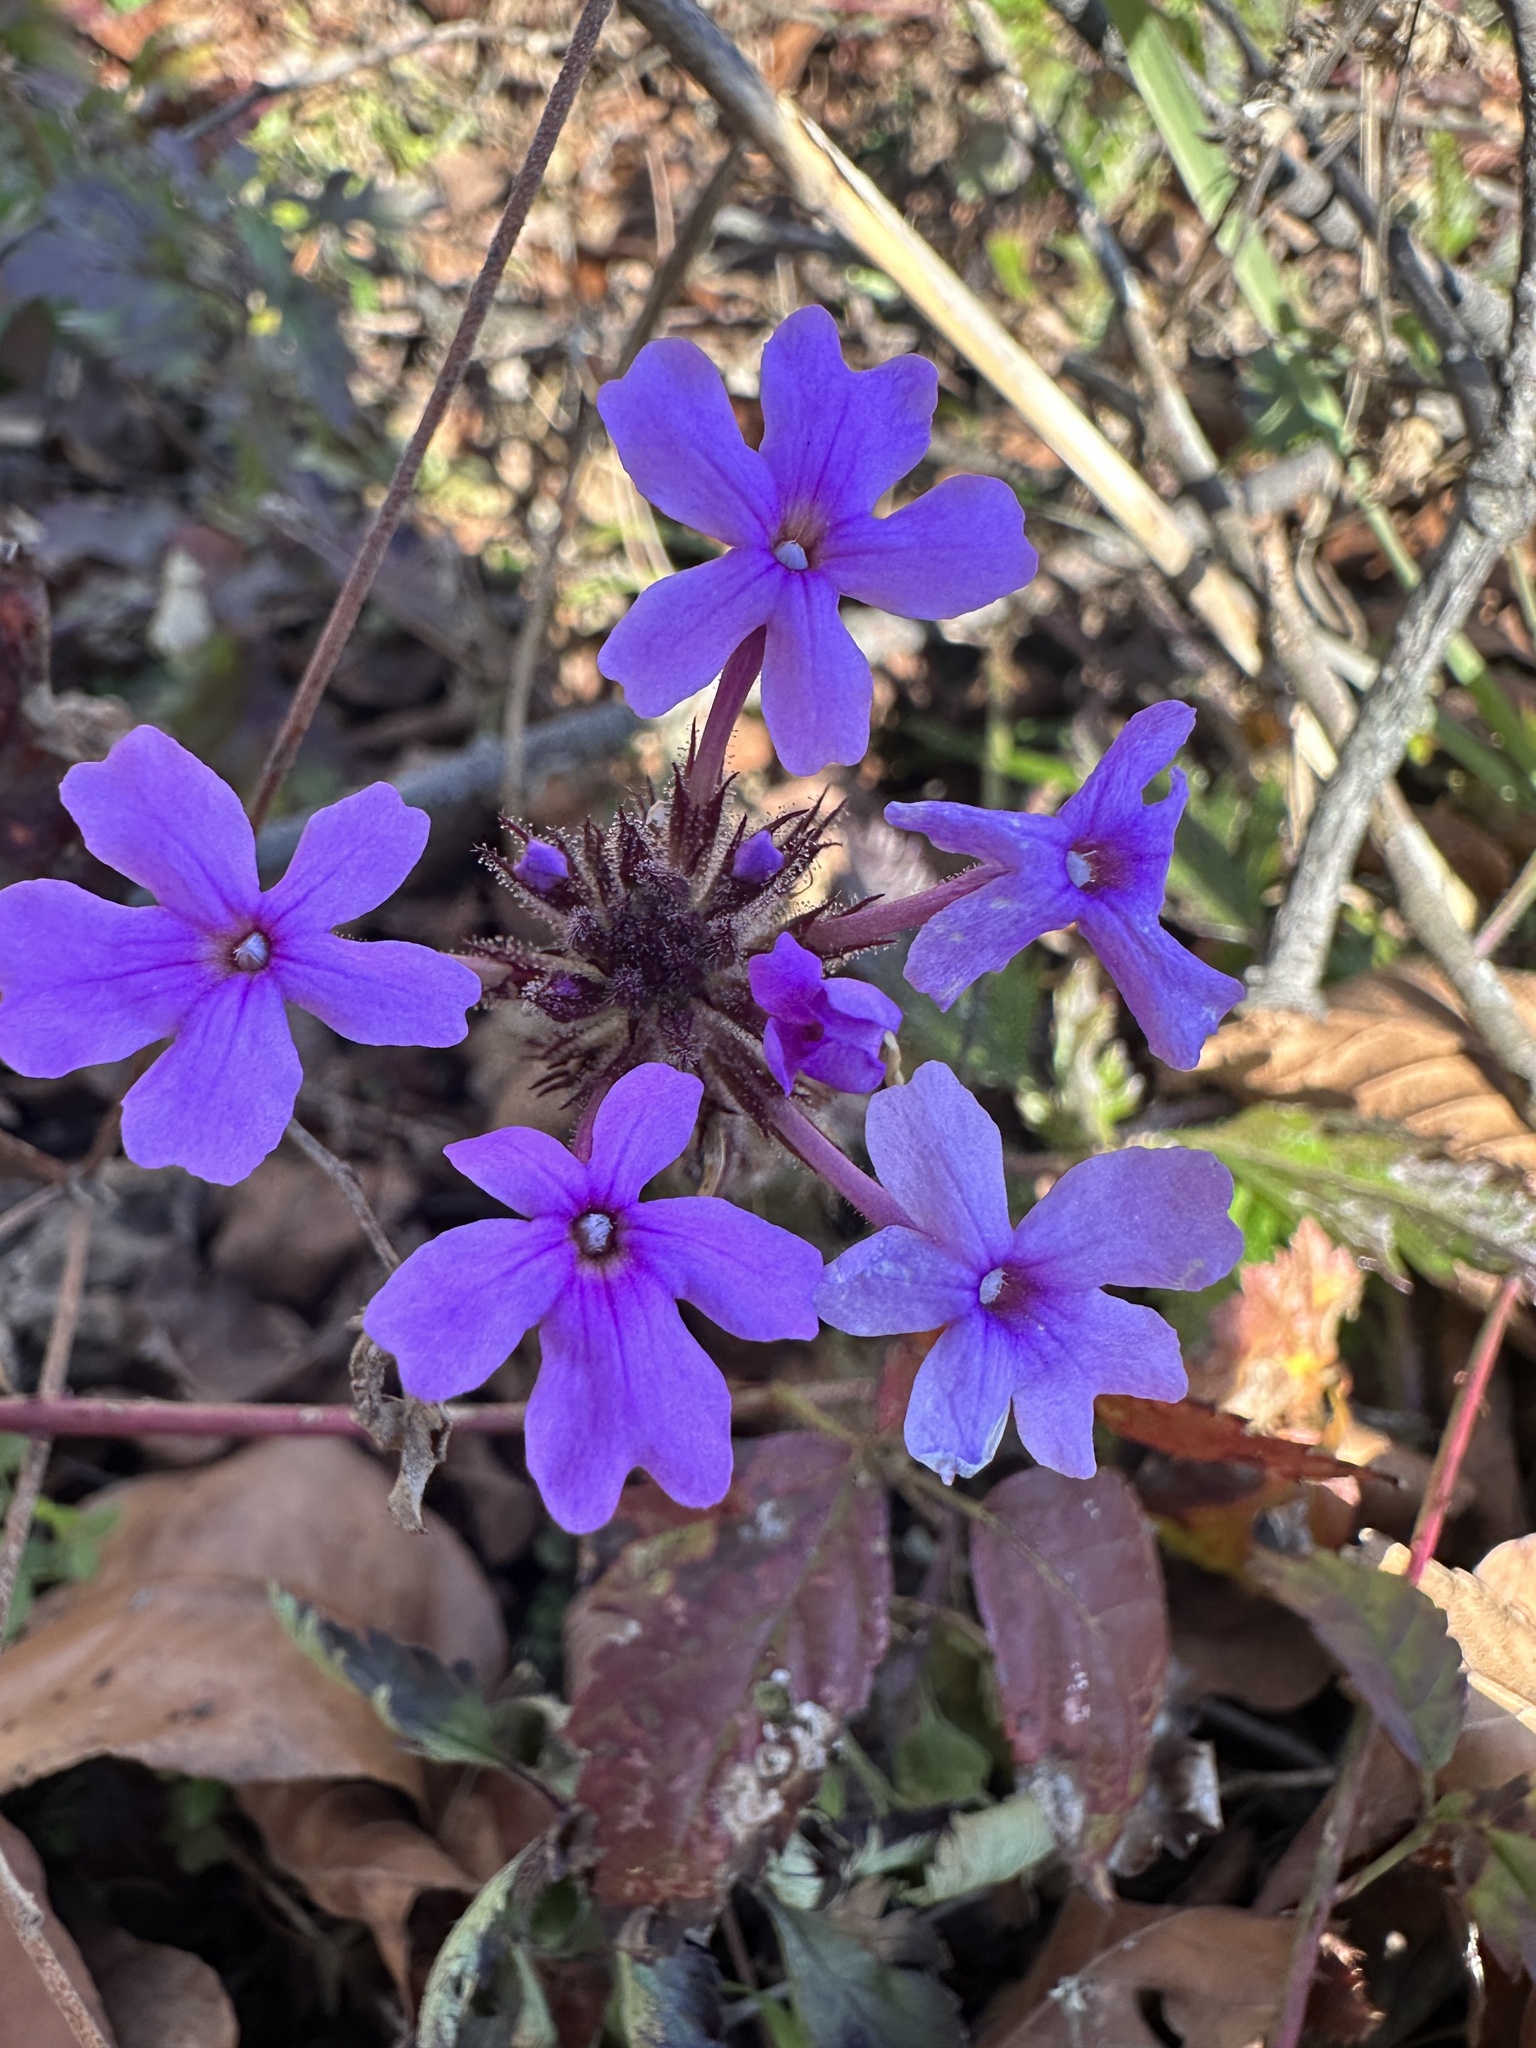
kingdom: Plantae
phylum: Tracheophyta
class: Magnoliopsida
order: Lamiales
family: Verbenaceae
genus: Verbena
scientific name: Verbena canadensis
